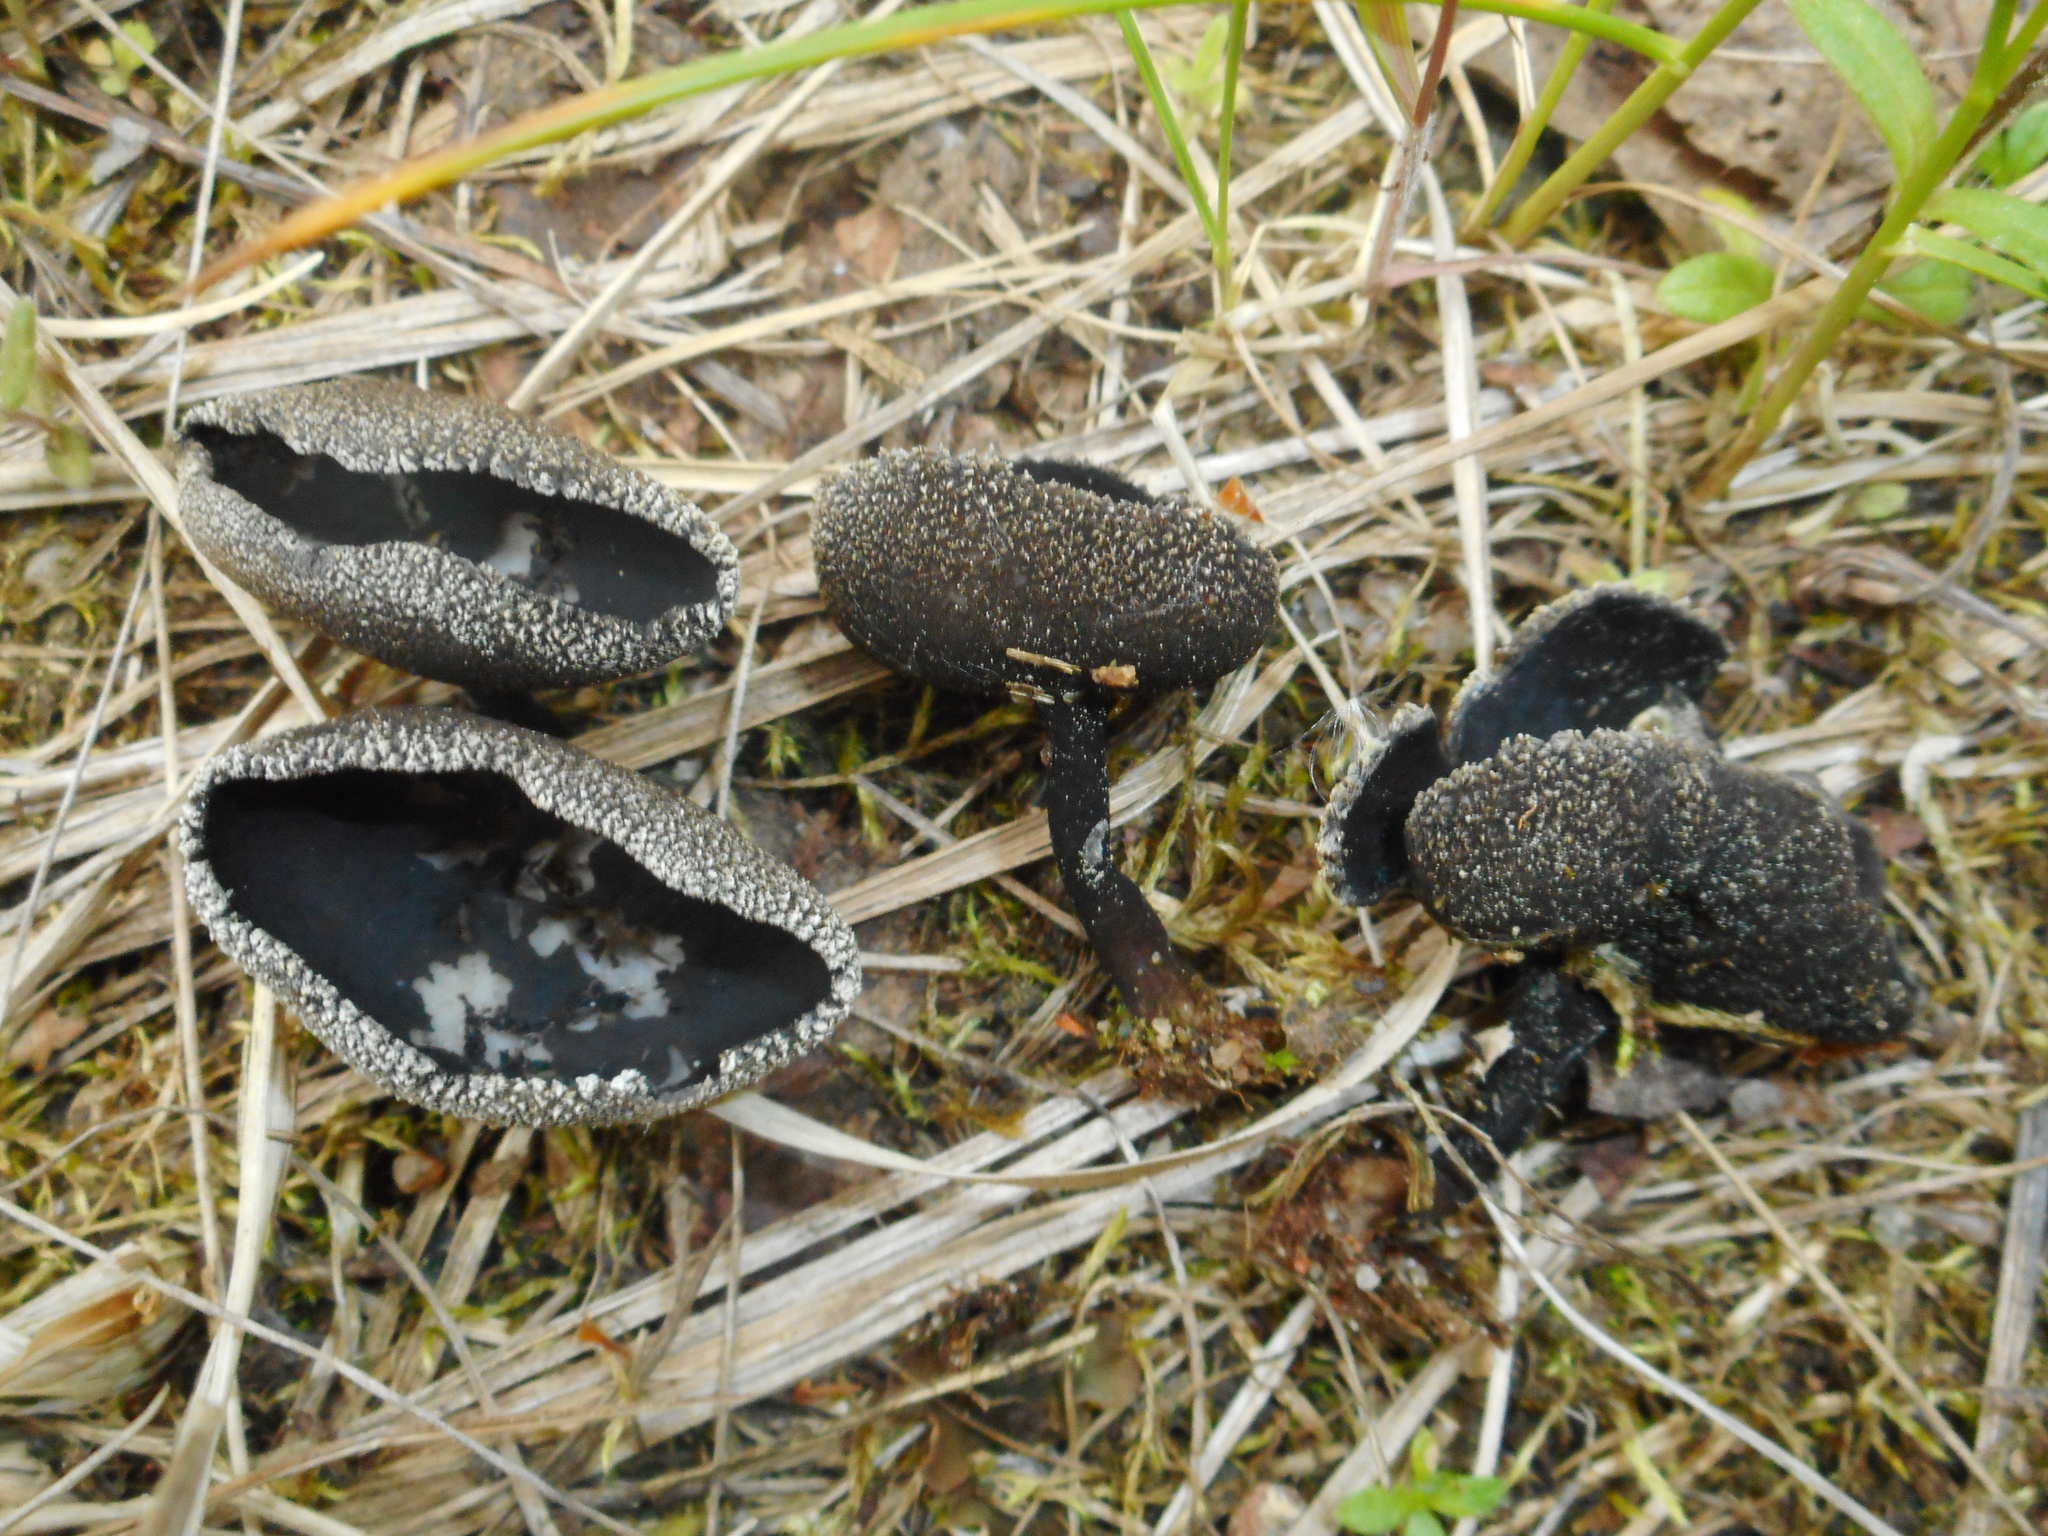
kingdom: Fungi
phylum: Ascomycota
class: Pezizomycetes
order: Pezizales
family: Helvellaceae
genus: Helvella
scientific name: Helvella corium
